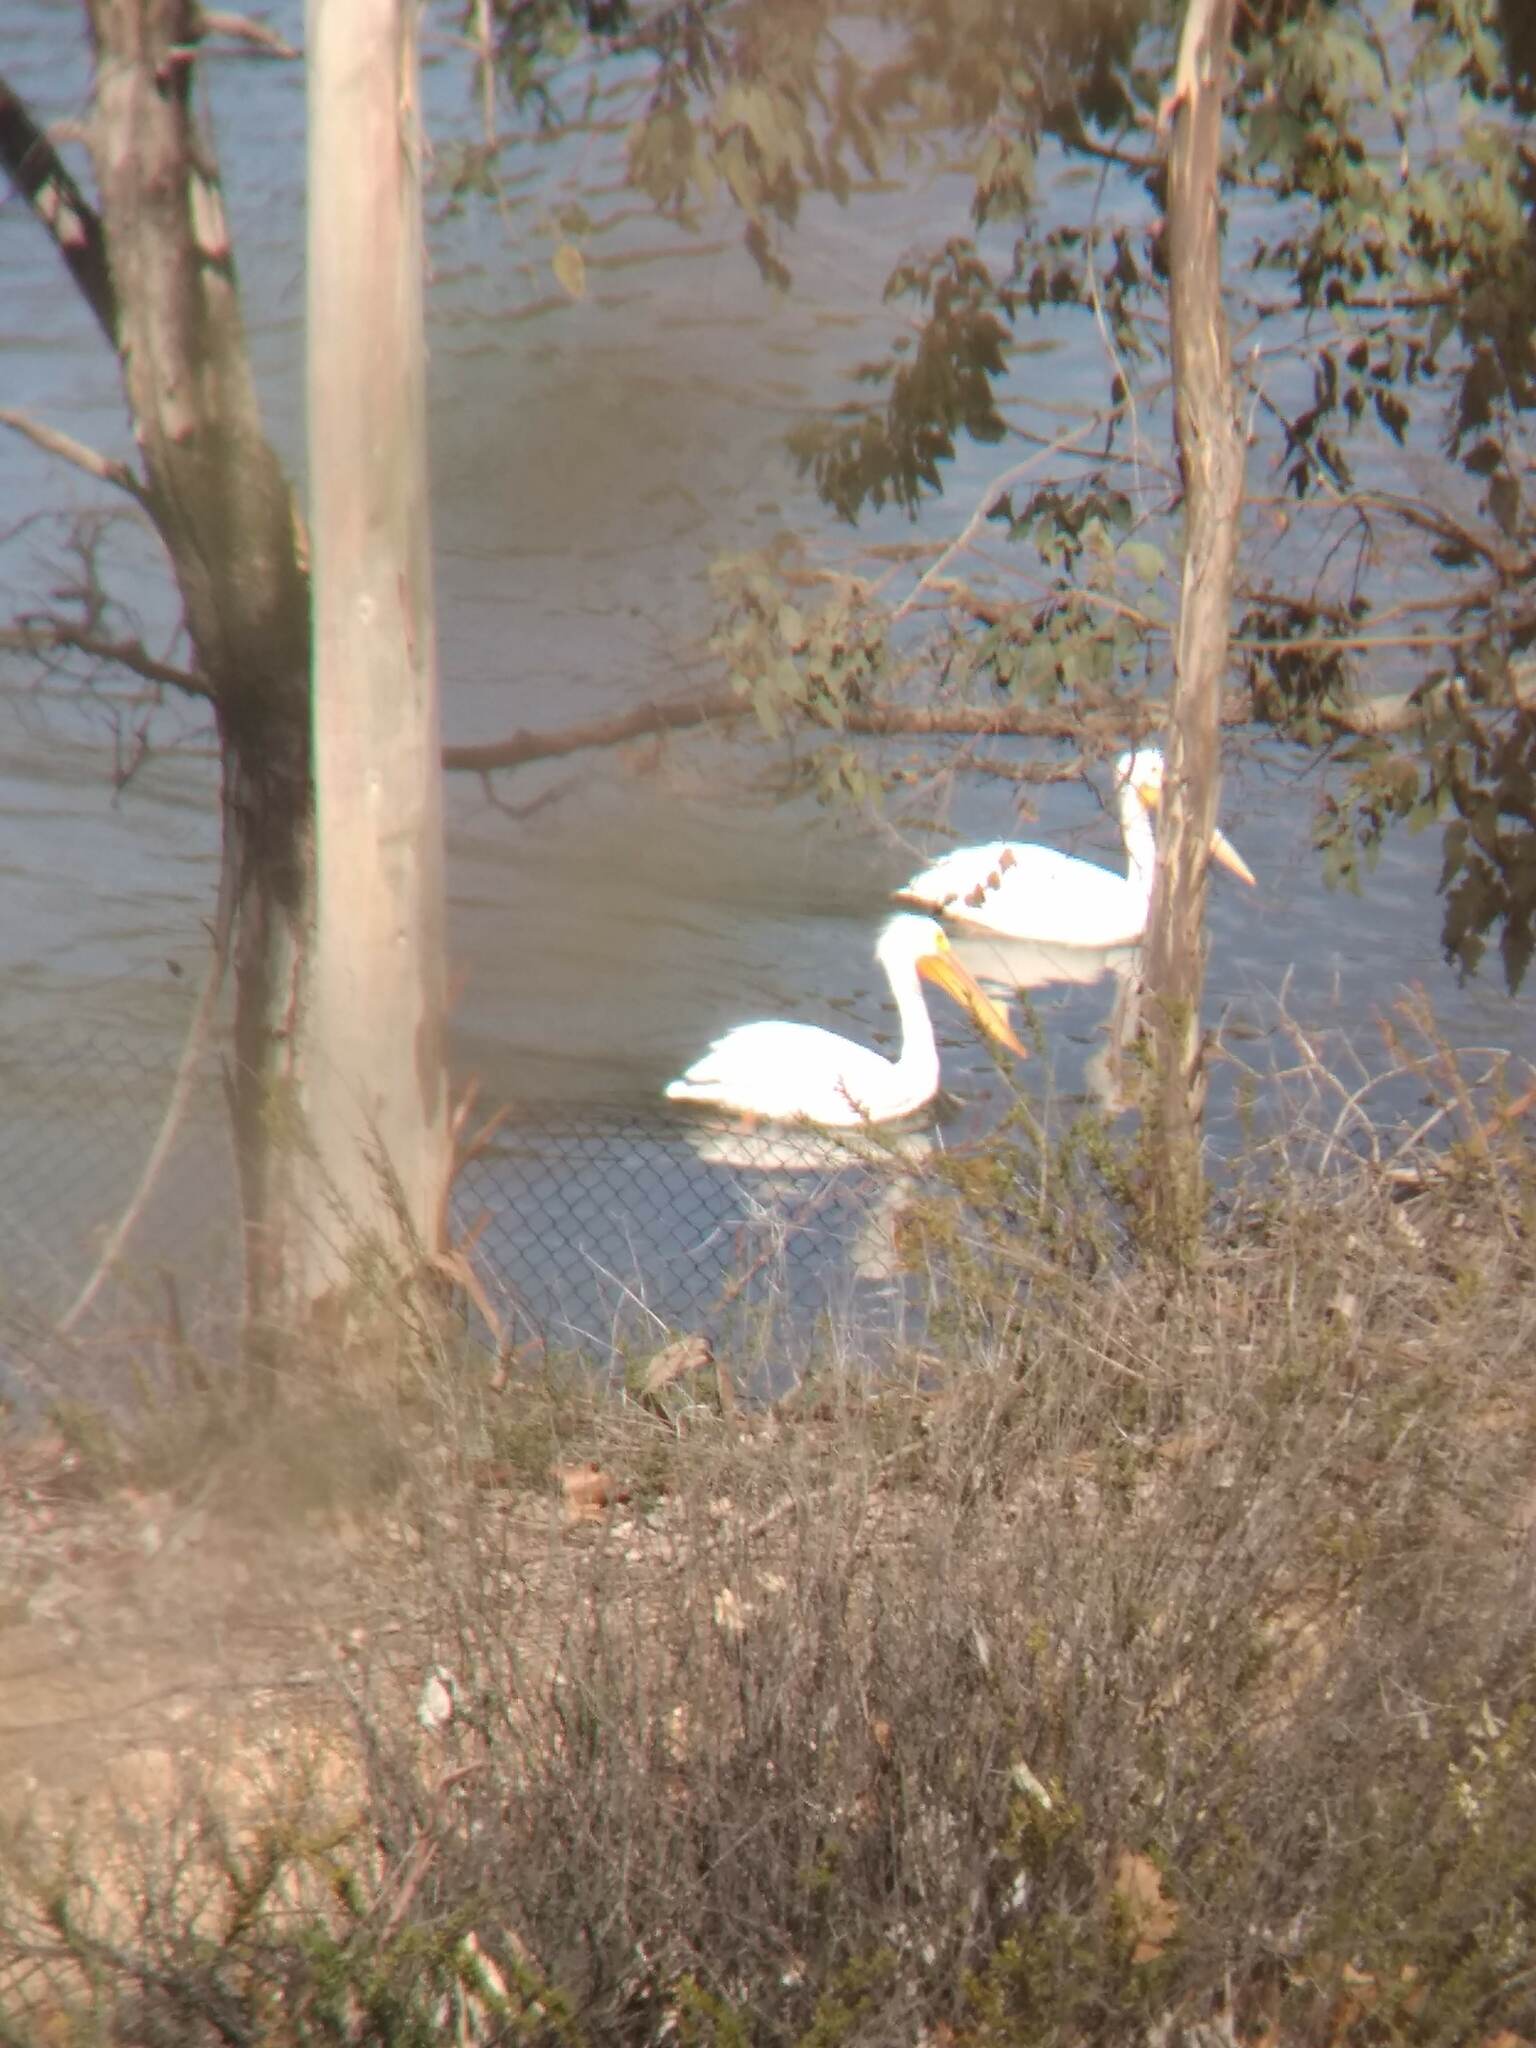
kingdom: Animalia
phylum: Chordata
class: Aves
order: Pelecaniformes
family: Pelecanidae
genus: Pelecanus
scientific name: Pelecanus erythrorhynchos
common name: American white pelican
